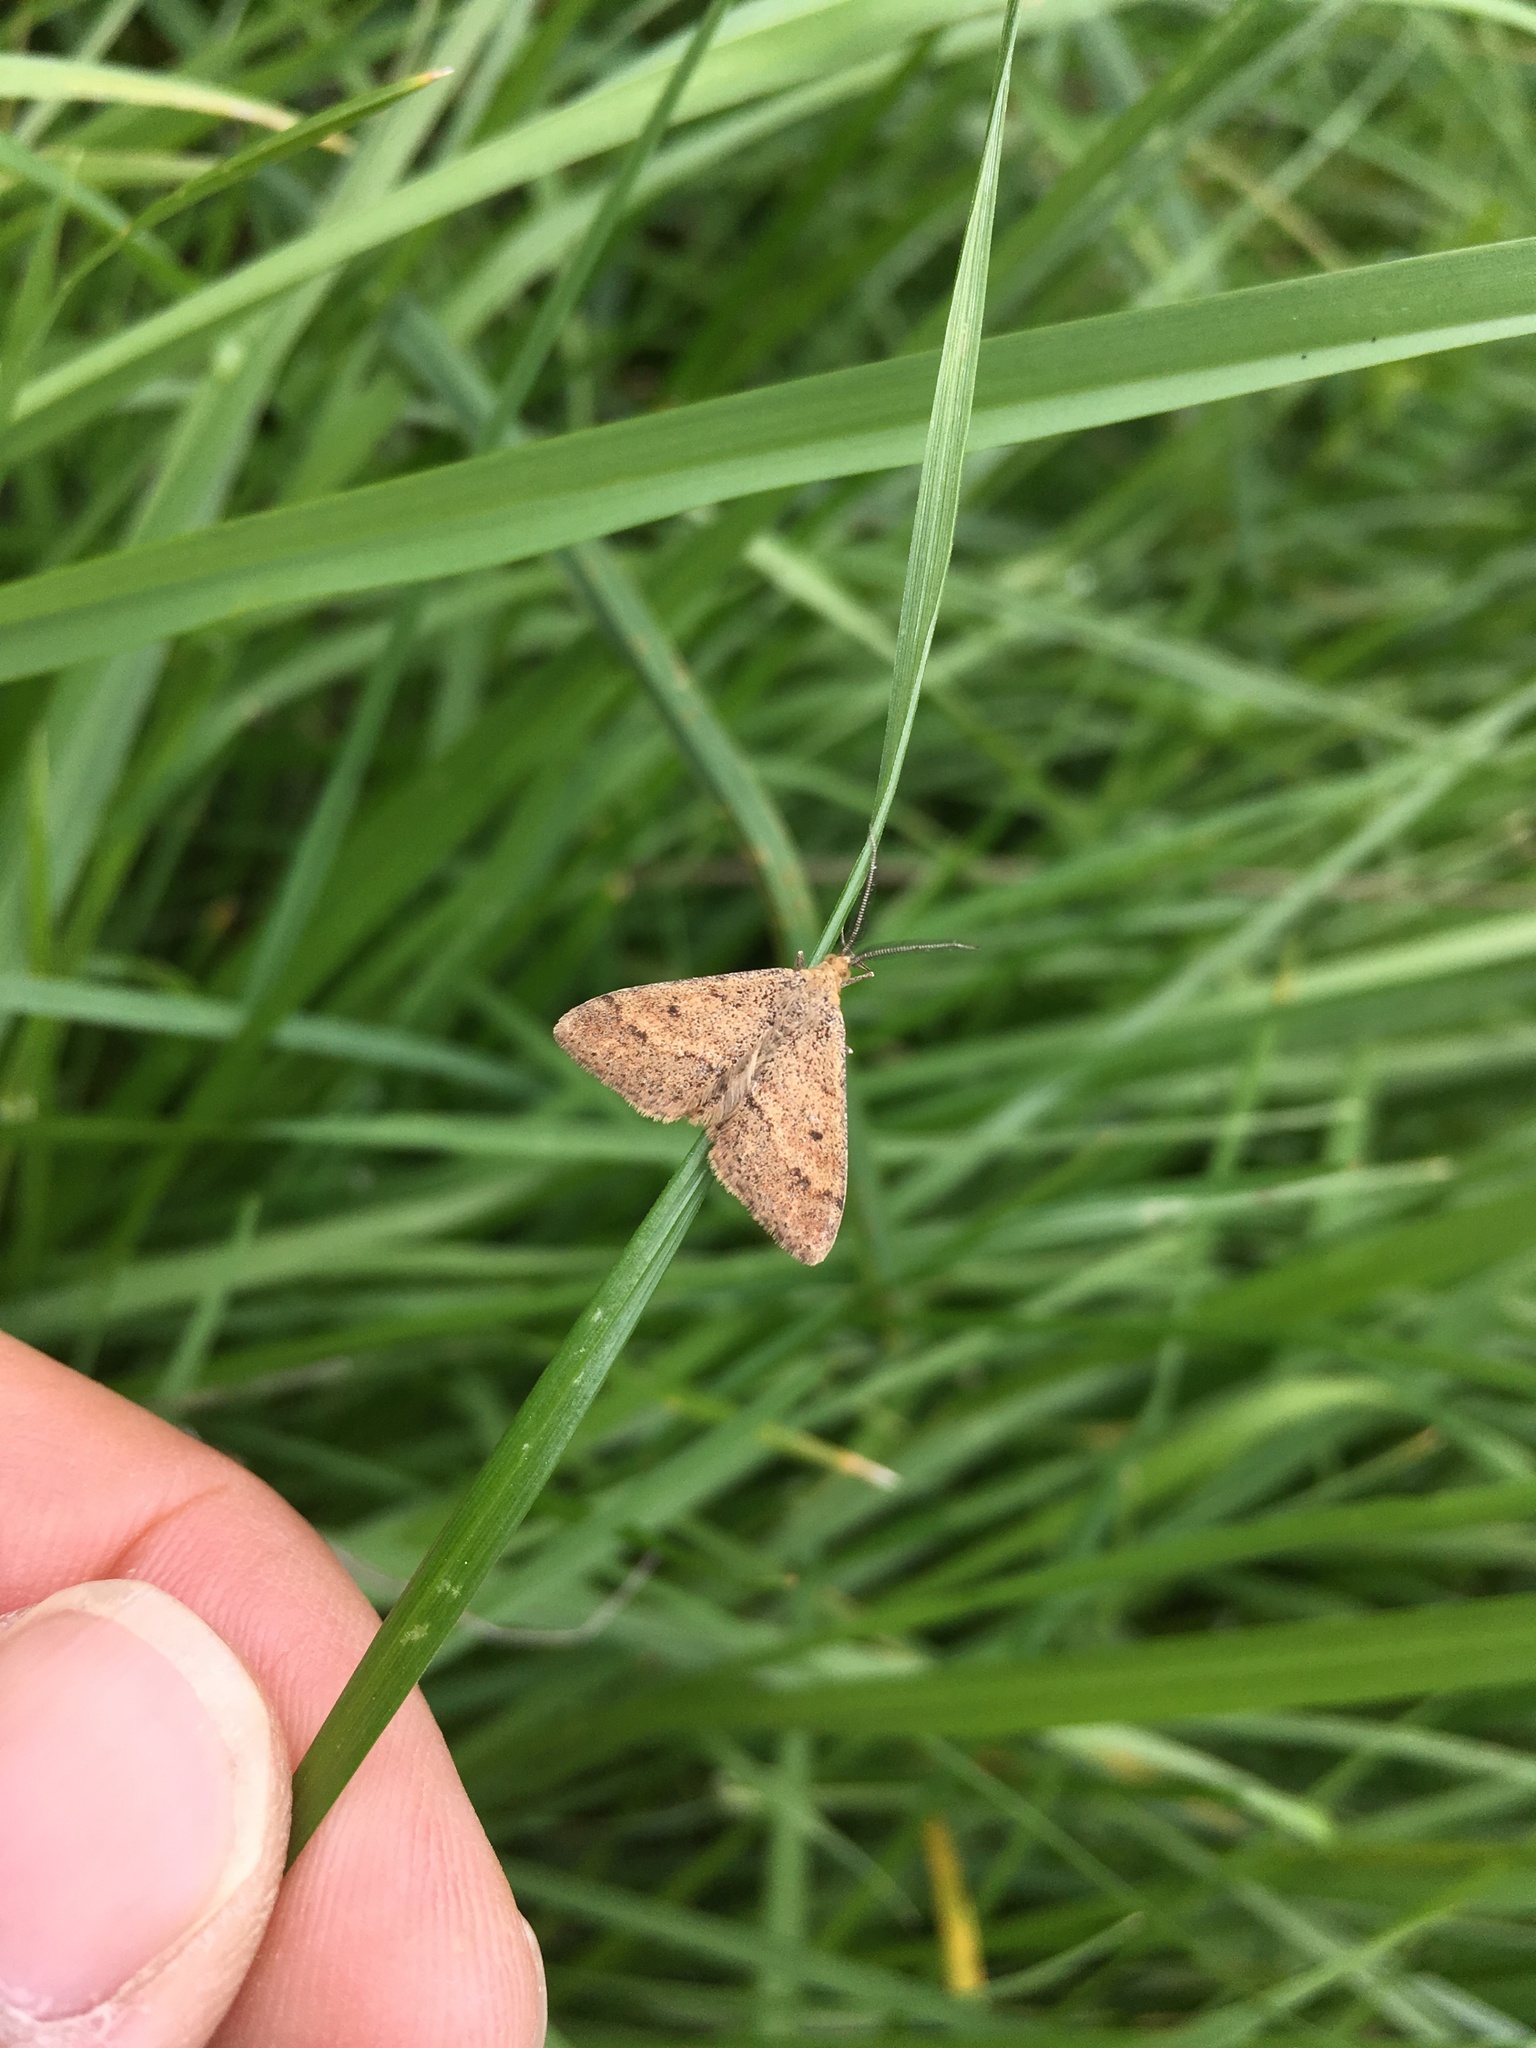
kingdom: Animalia
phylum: Arthropoda
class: Insecta
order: Lepidoptera
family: Geometridae
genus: Scopula
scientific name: Scopula rubraria
